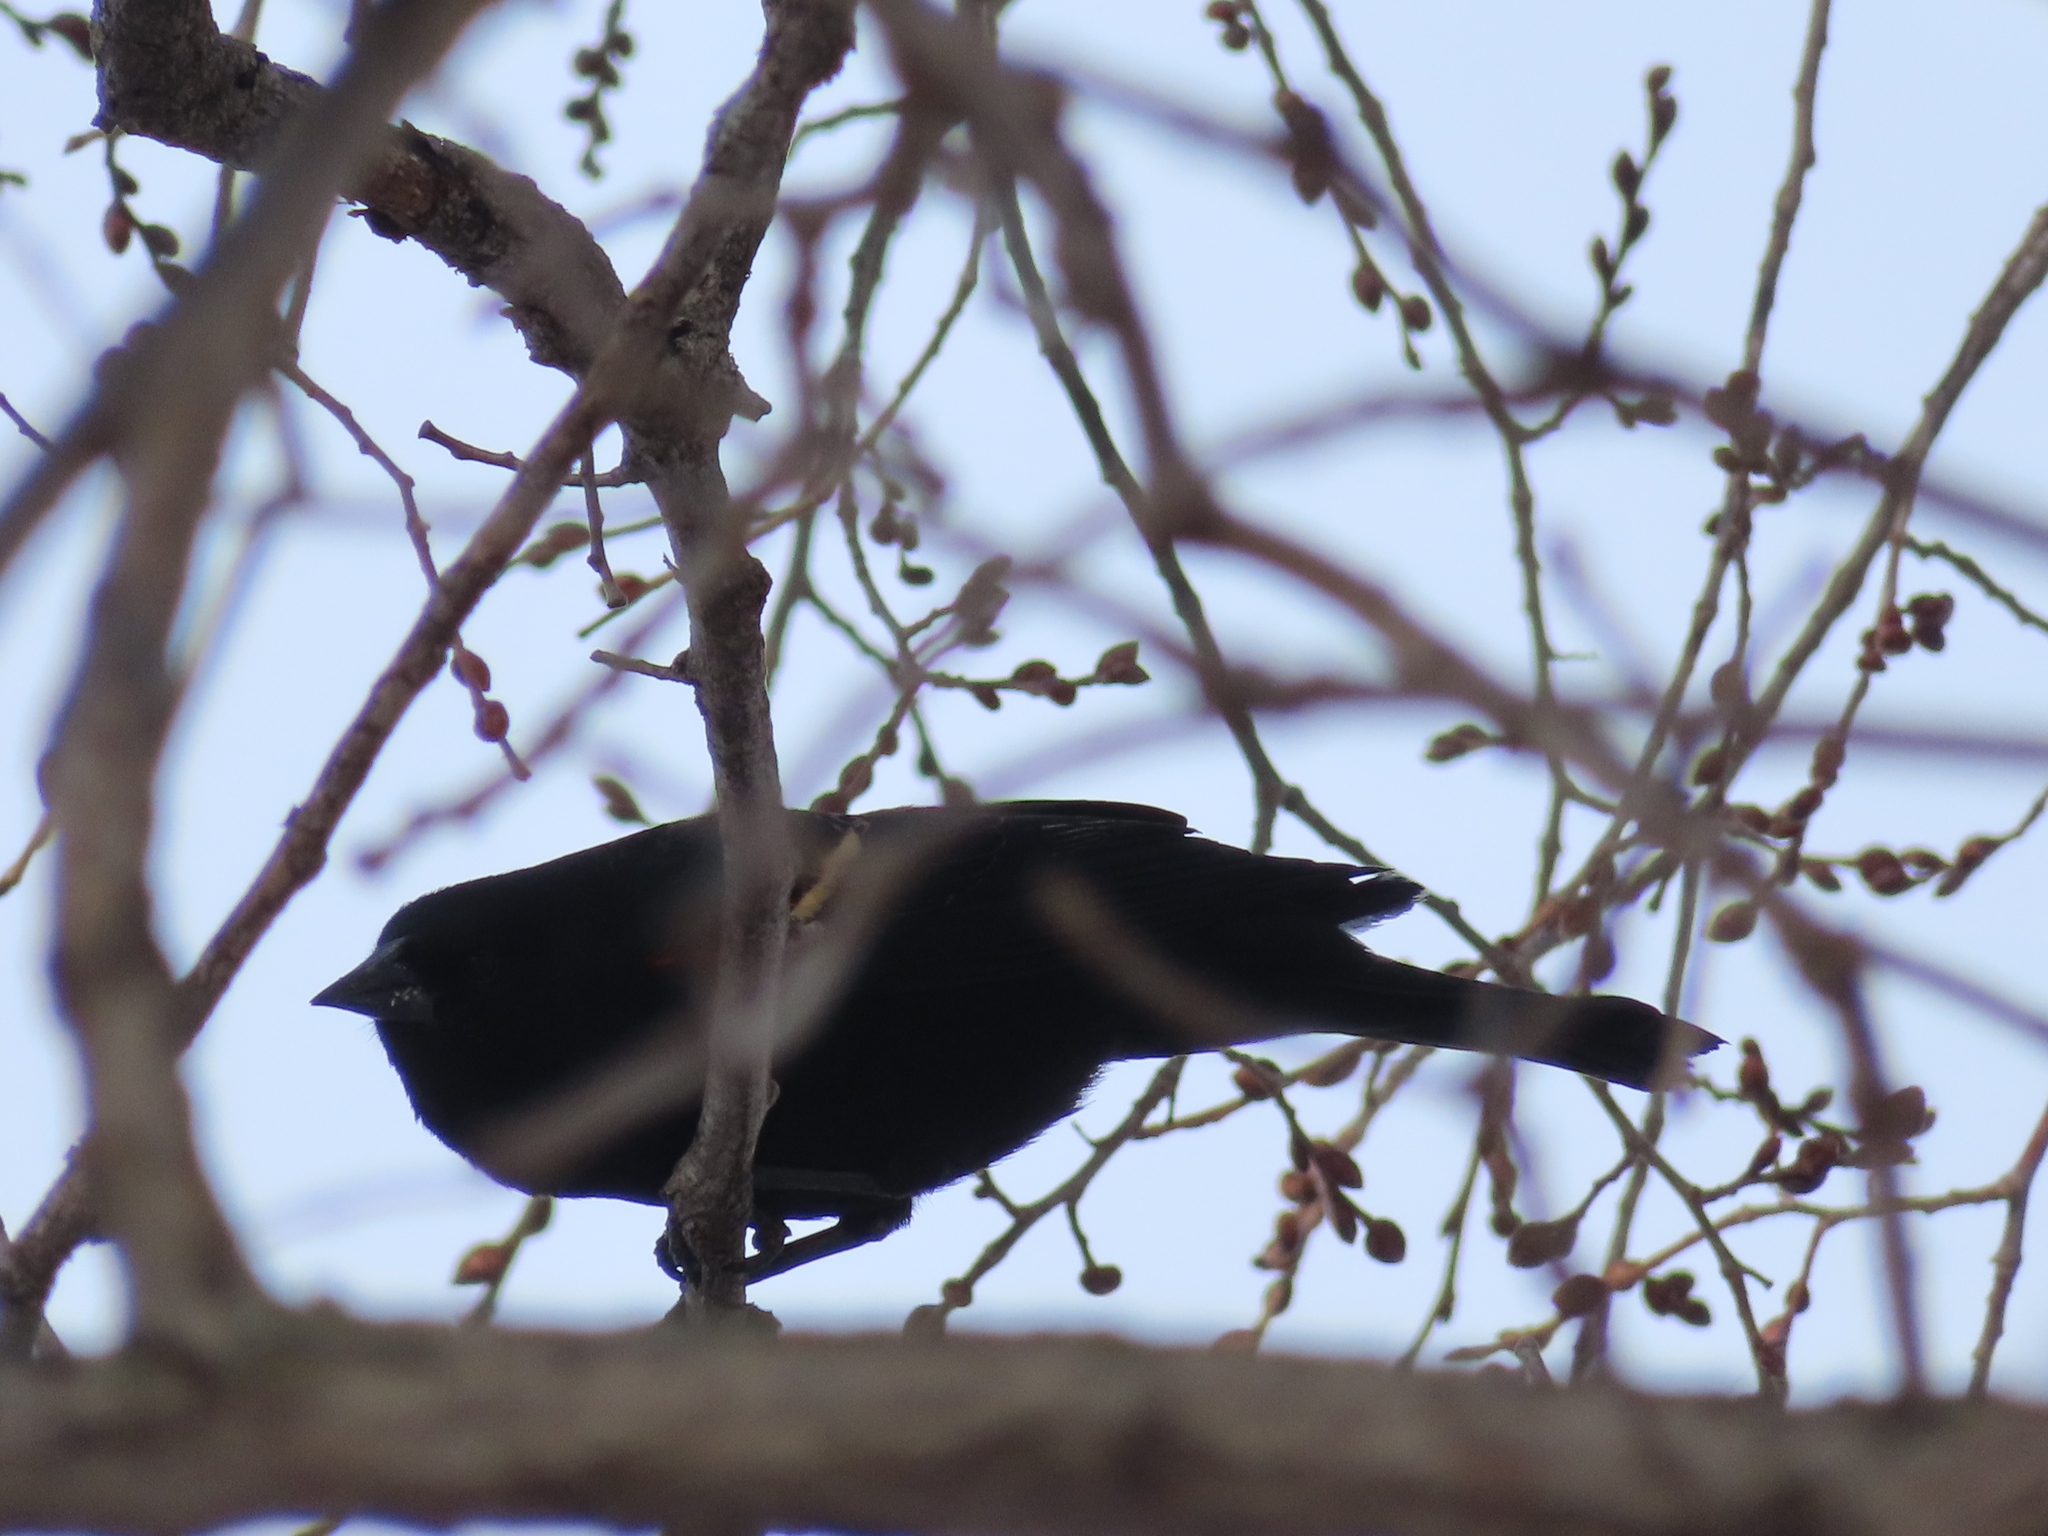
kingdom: Animalia
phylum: Chordata
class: Aves
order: Passeriformes
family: Icteridae
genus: Agelaius
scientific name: Agelaius phoeniceus
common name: Red-winged blackbird
